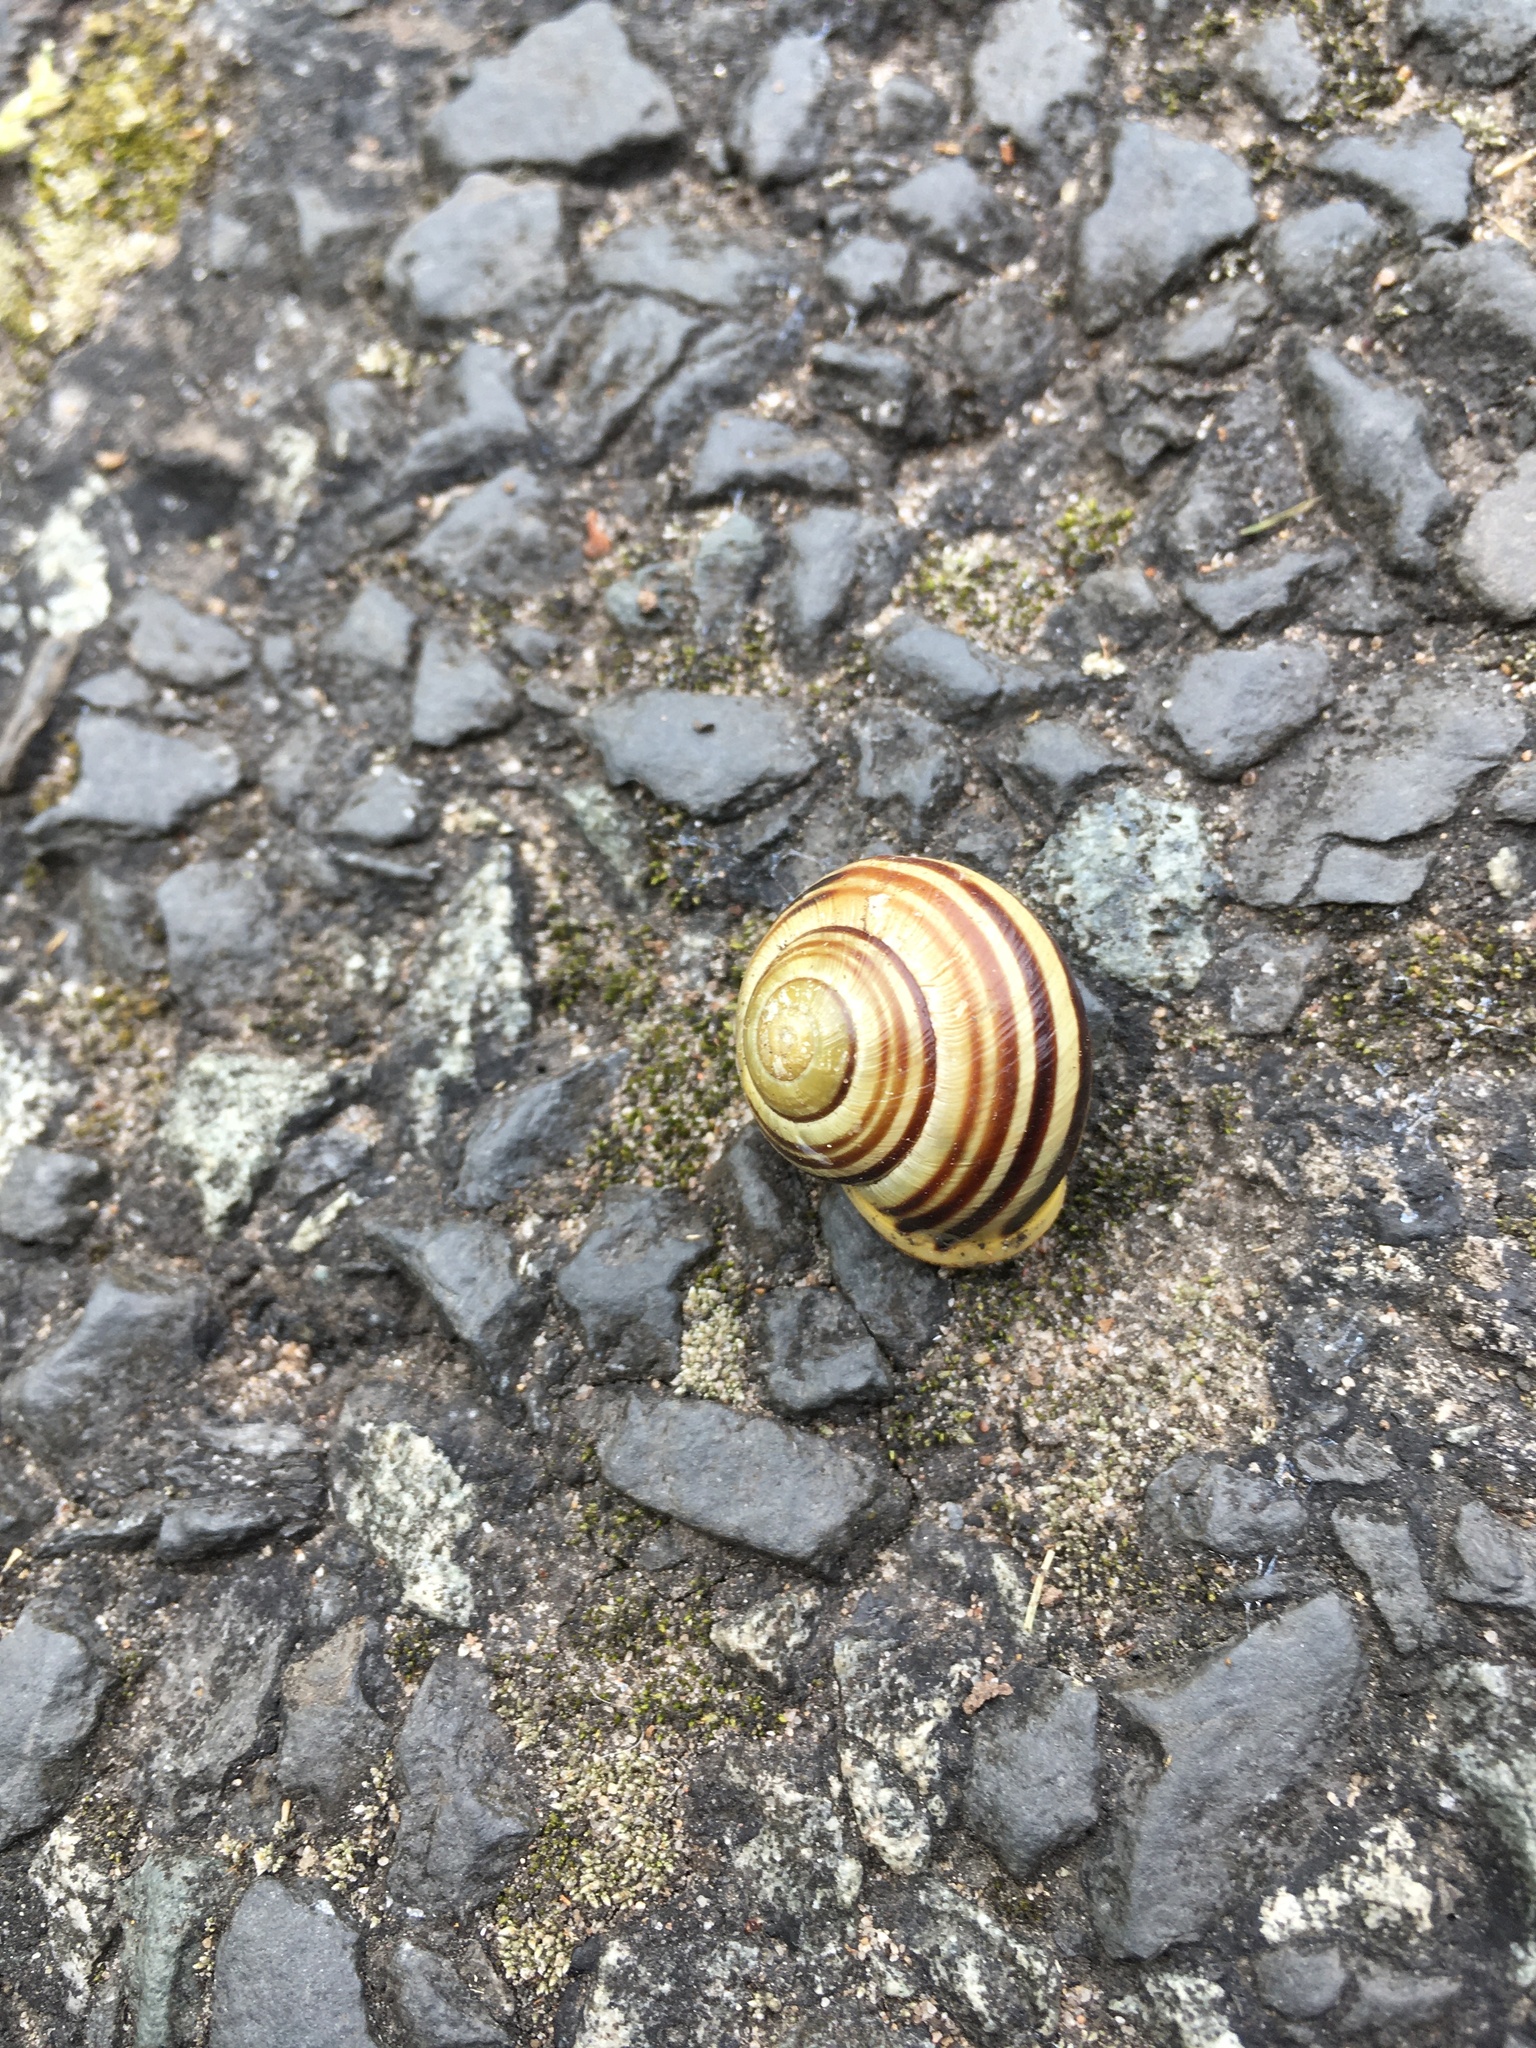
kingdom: Animalia
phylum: Mollusca
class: Gastropoda
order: Stylommatophora
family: Helicidae
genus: Cepaea
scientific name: Cepaea hortensis
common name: White-lip gardensnail
